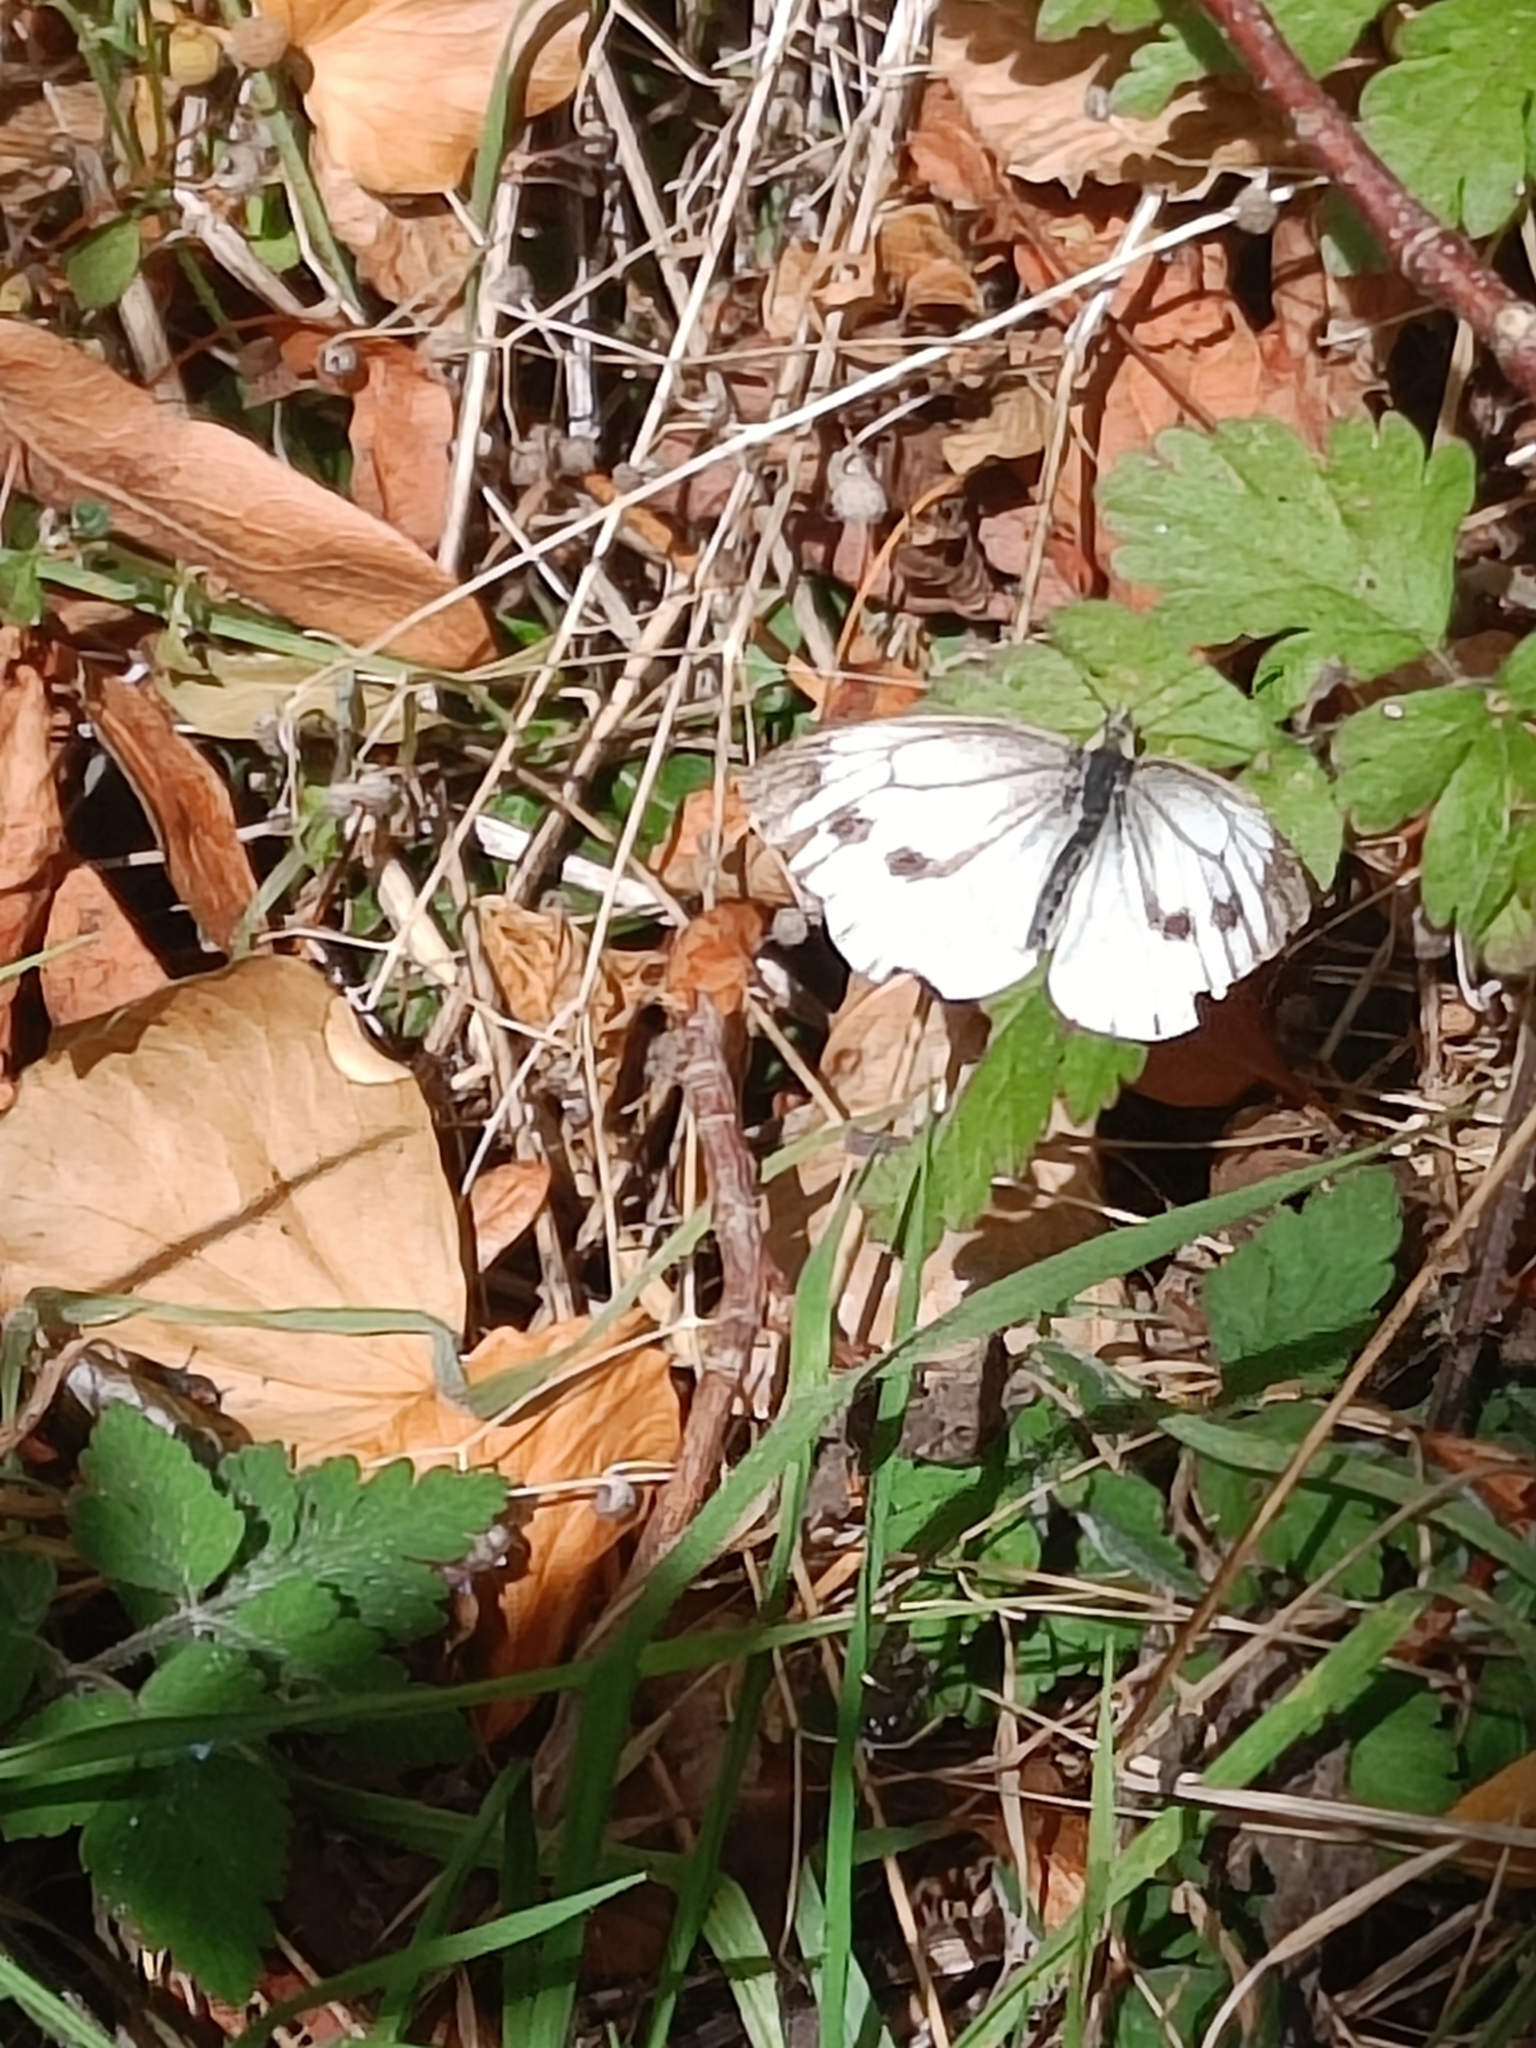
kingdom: Animalia
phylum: Arthropoda
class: Insecta
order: Lepidoptera
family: Pieridae
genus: Pieris
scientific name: Pieris napi
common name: Green-veined white
